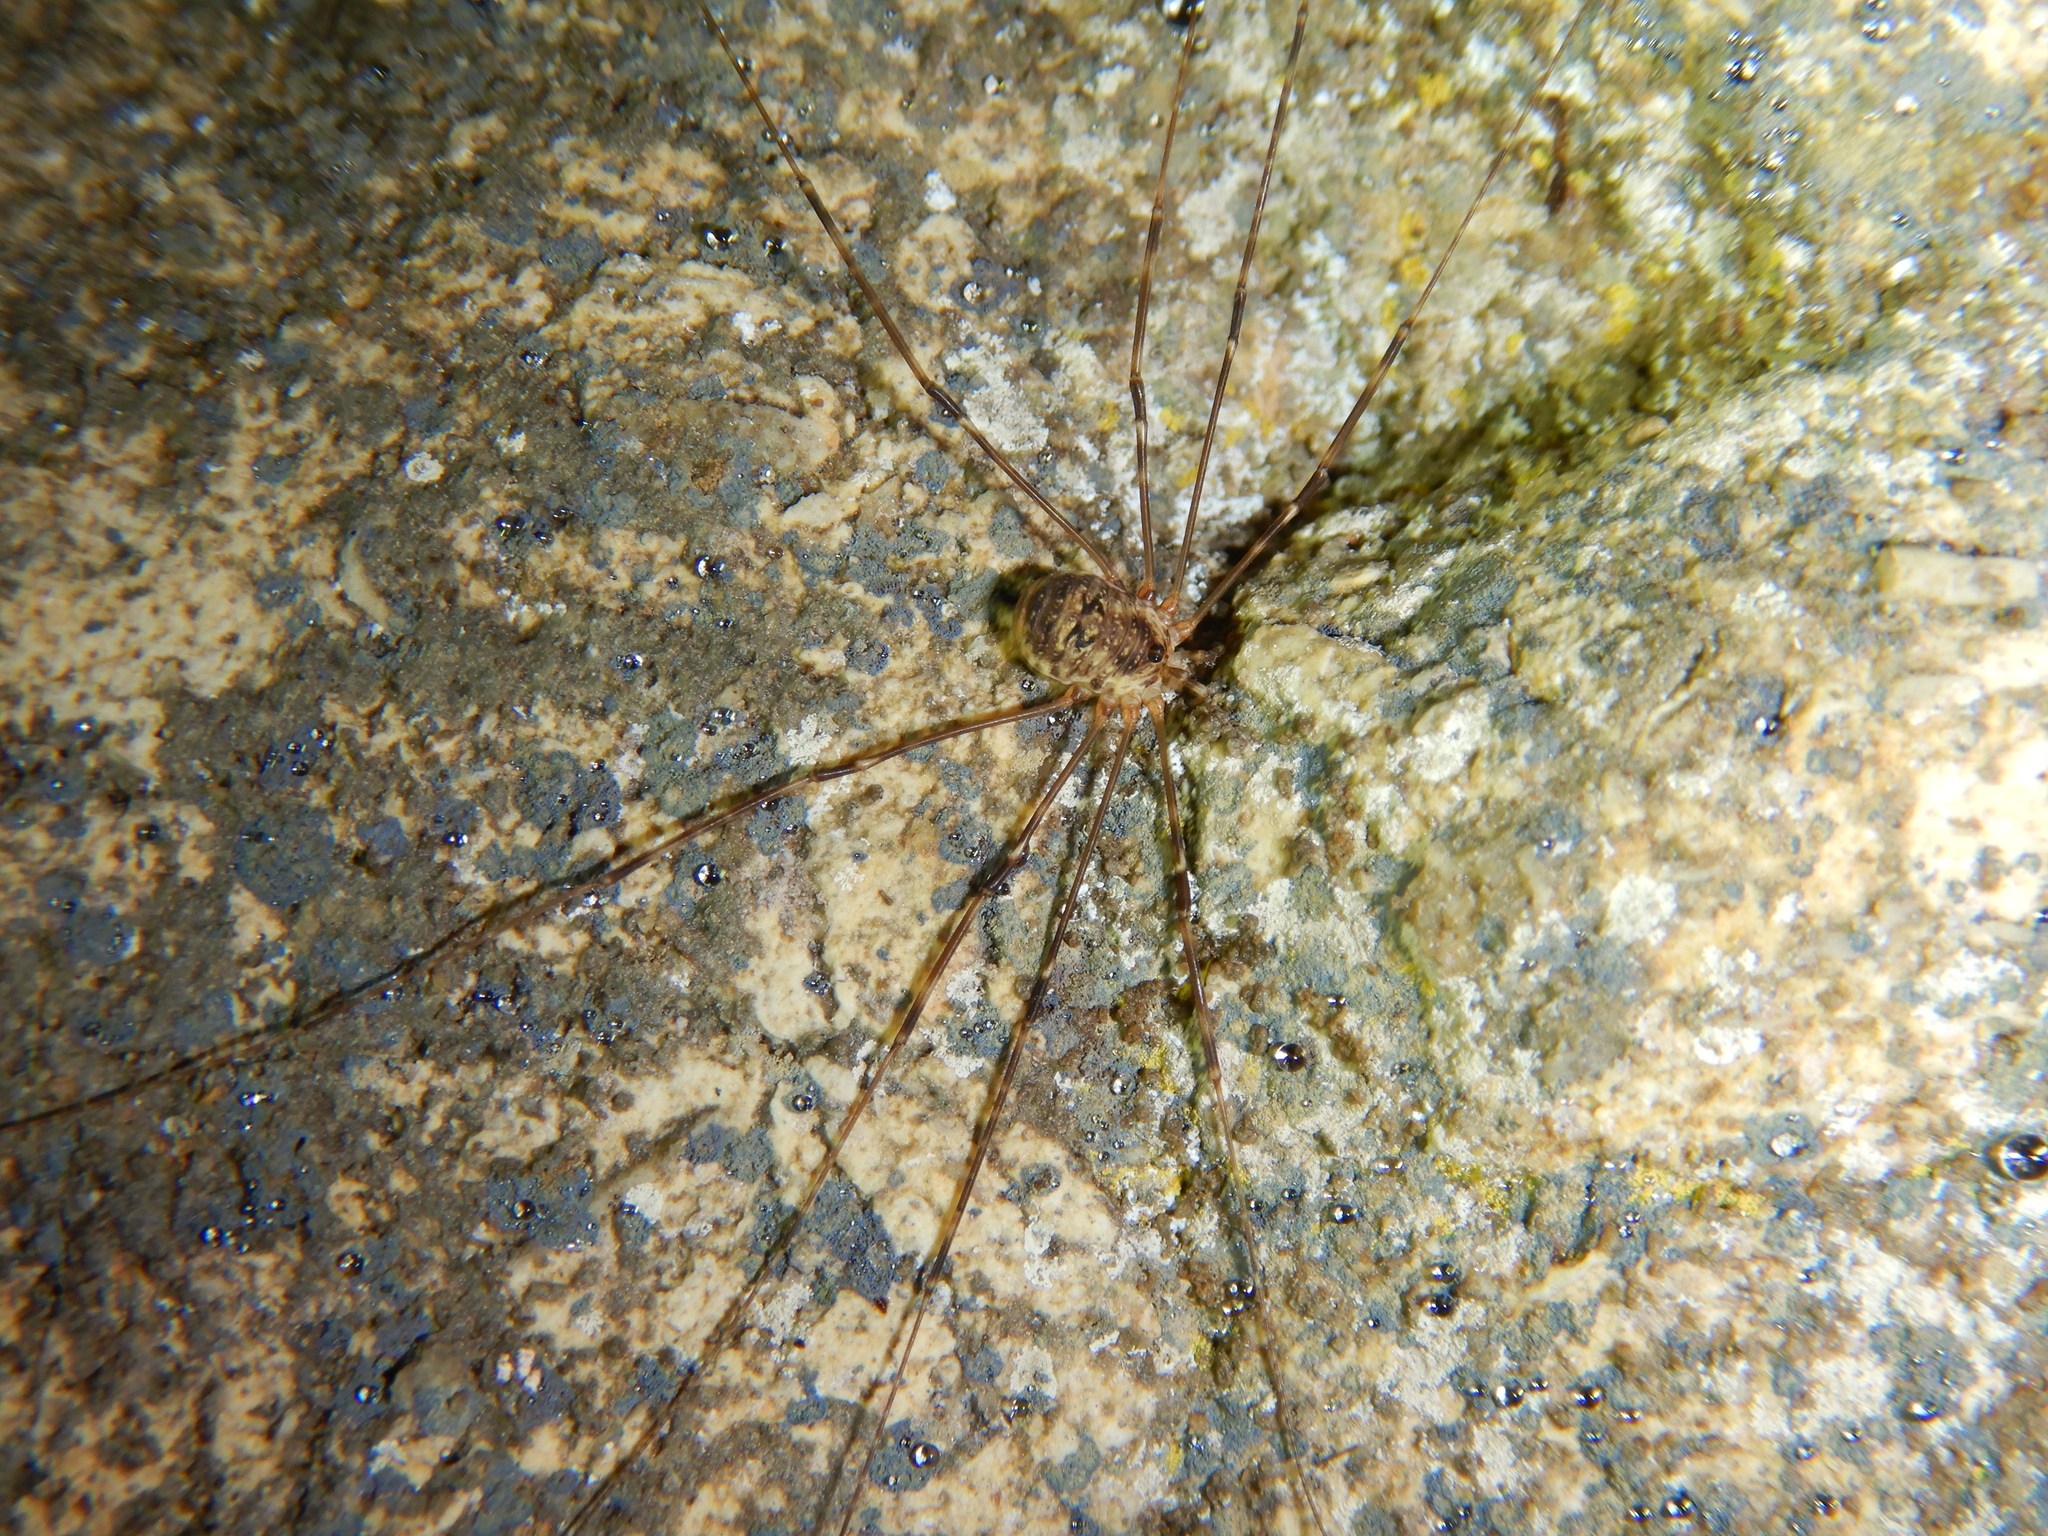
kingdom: Animalia
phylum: Arthropoda
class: Arachnida
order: Opiliones
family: Phalangiidae
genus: Amilenus
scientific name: Amilenus aurantiacus
